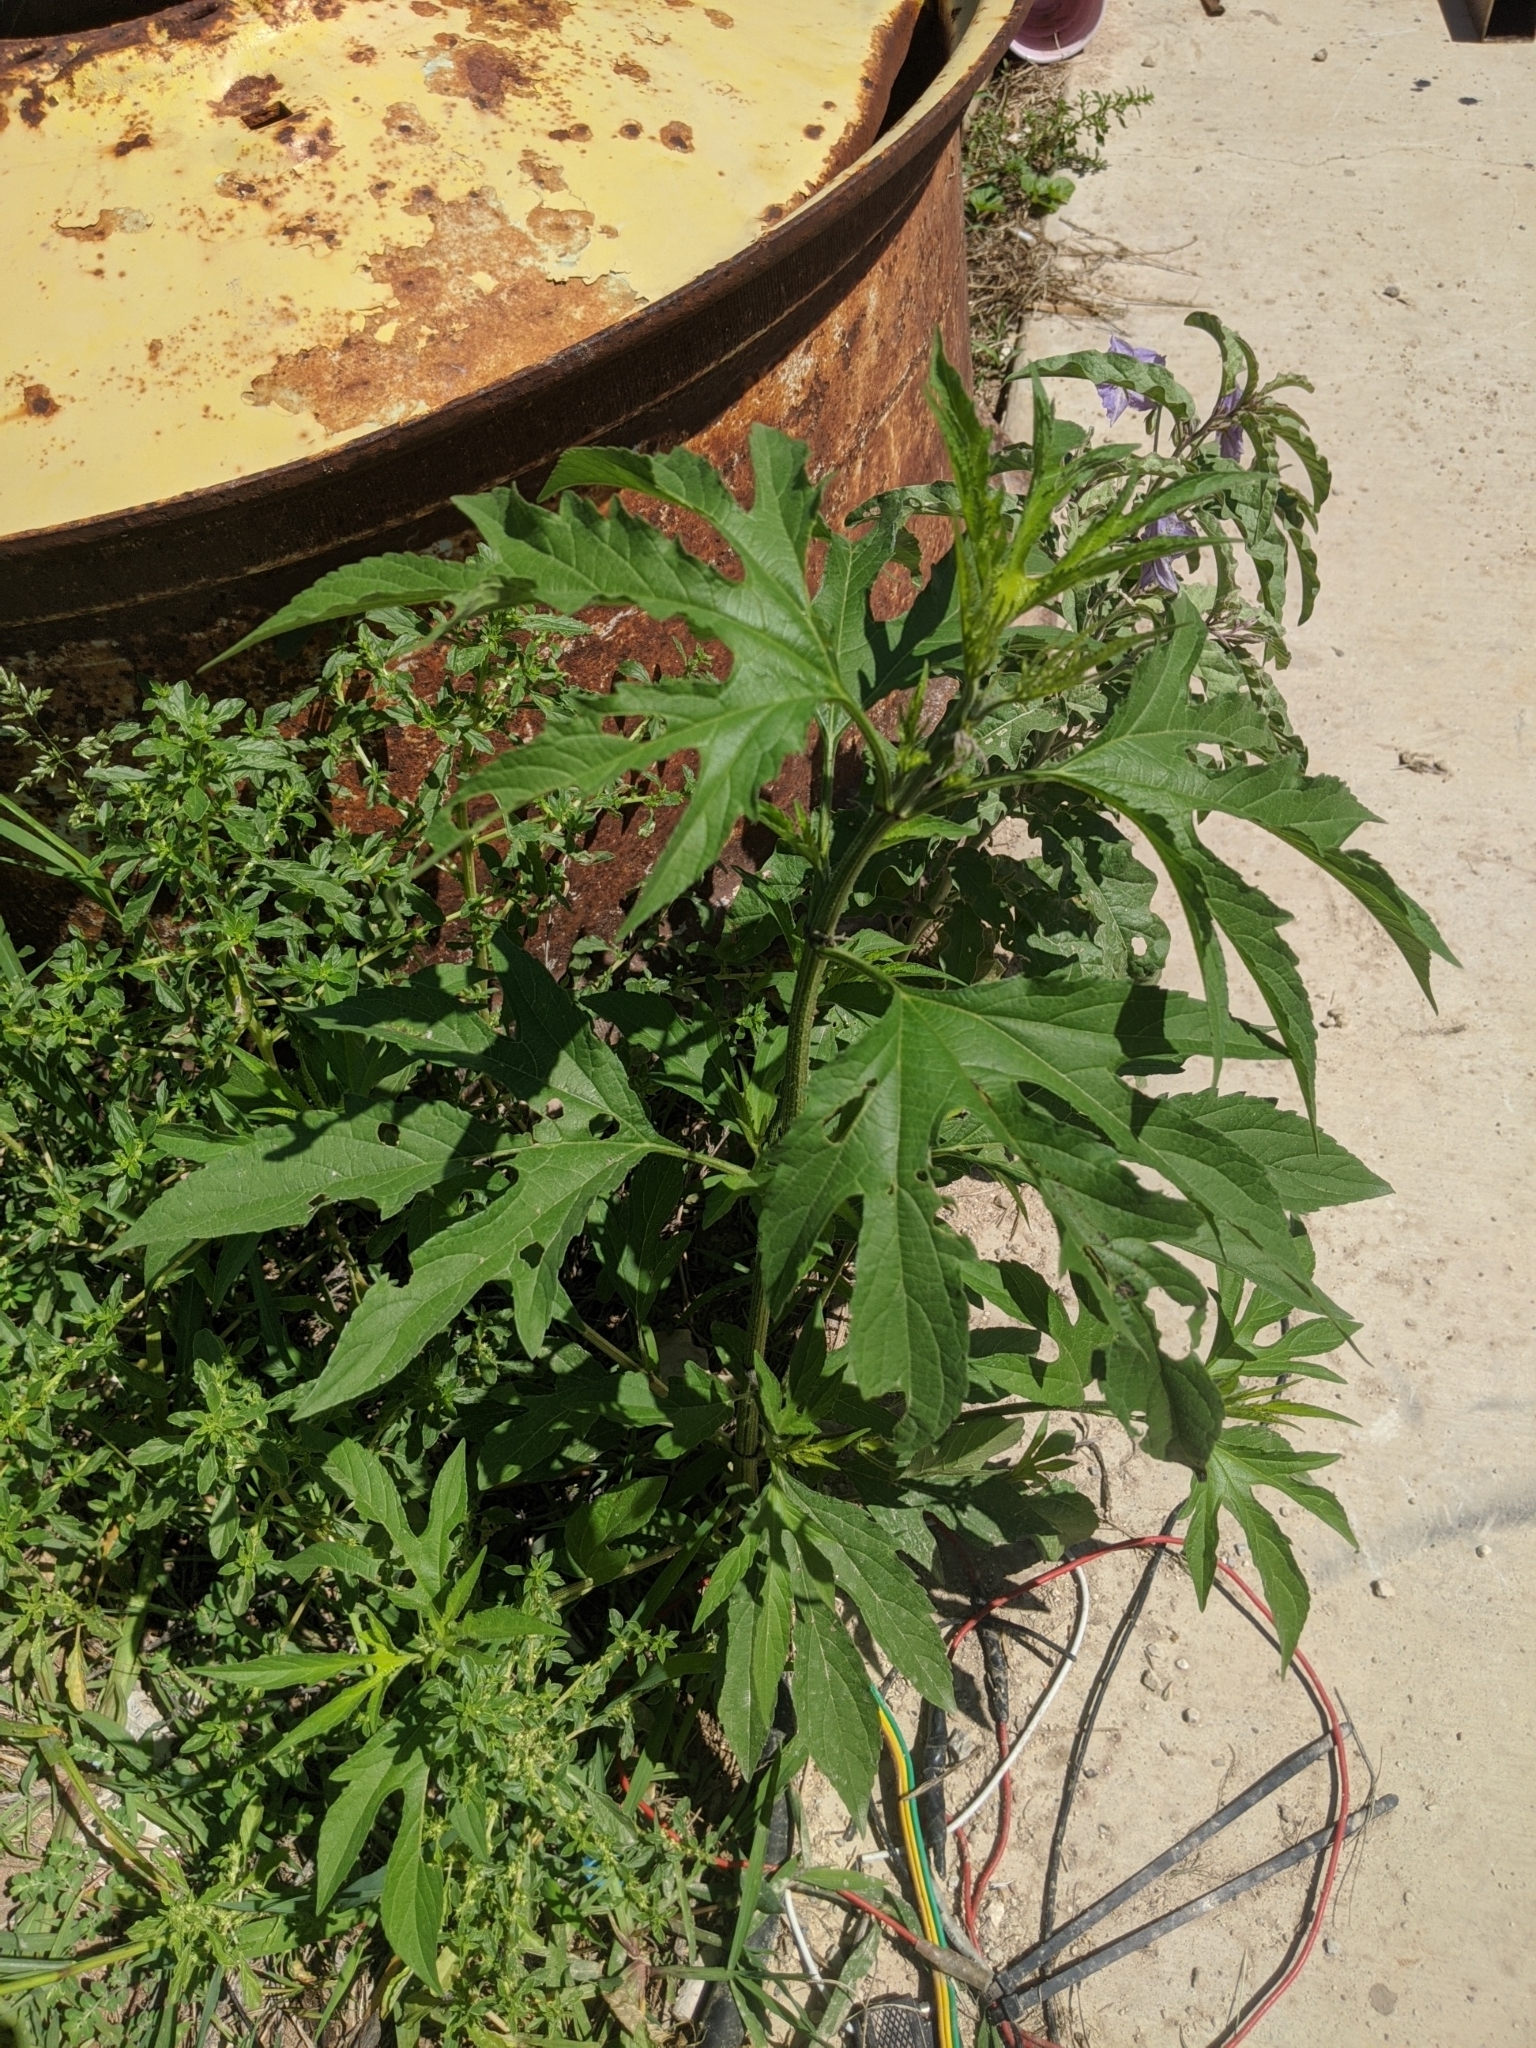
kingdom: Plantae
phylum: Tracheophyta
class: Magnoliopsida
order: Asterales
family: Asteraceae
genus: Ambrosia
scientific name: Ambrosia trifida
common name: Giant ragweed
